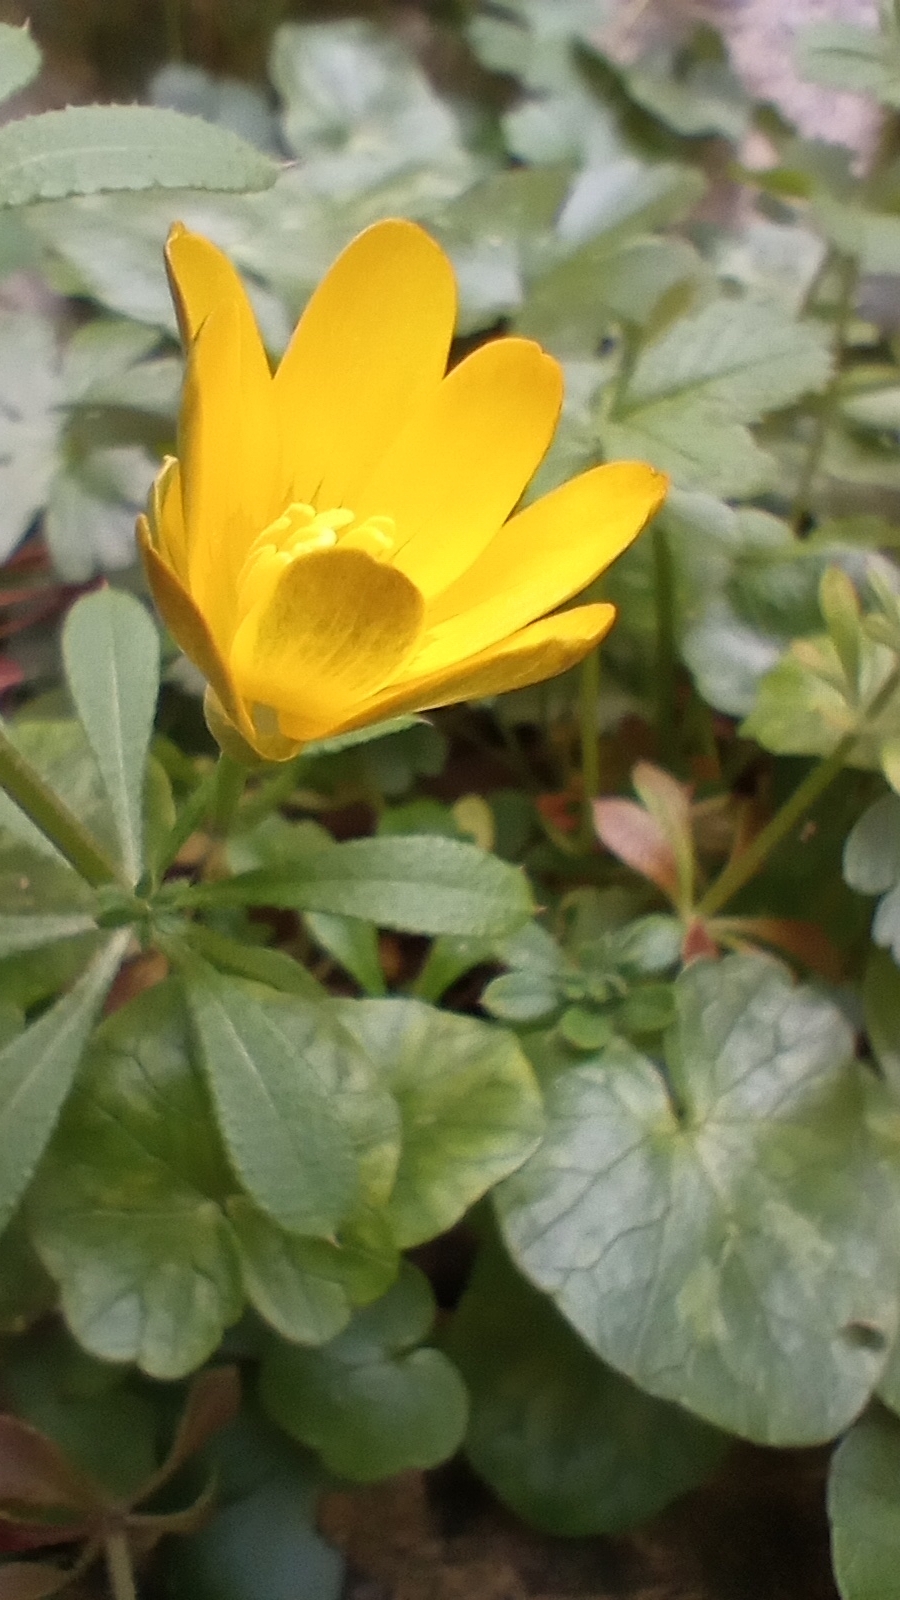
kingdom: Plantae
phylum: Tracheophyta
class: Magnoliopsida
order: Ranunculales
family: Ranunculaceae
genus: Ficaria
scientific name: Ficaria verna
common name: Lesser celandine
